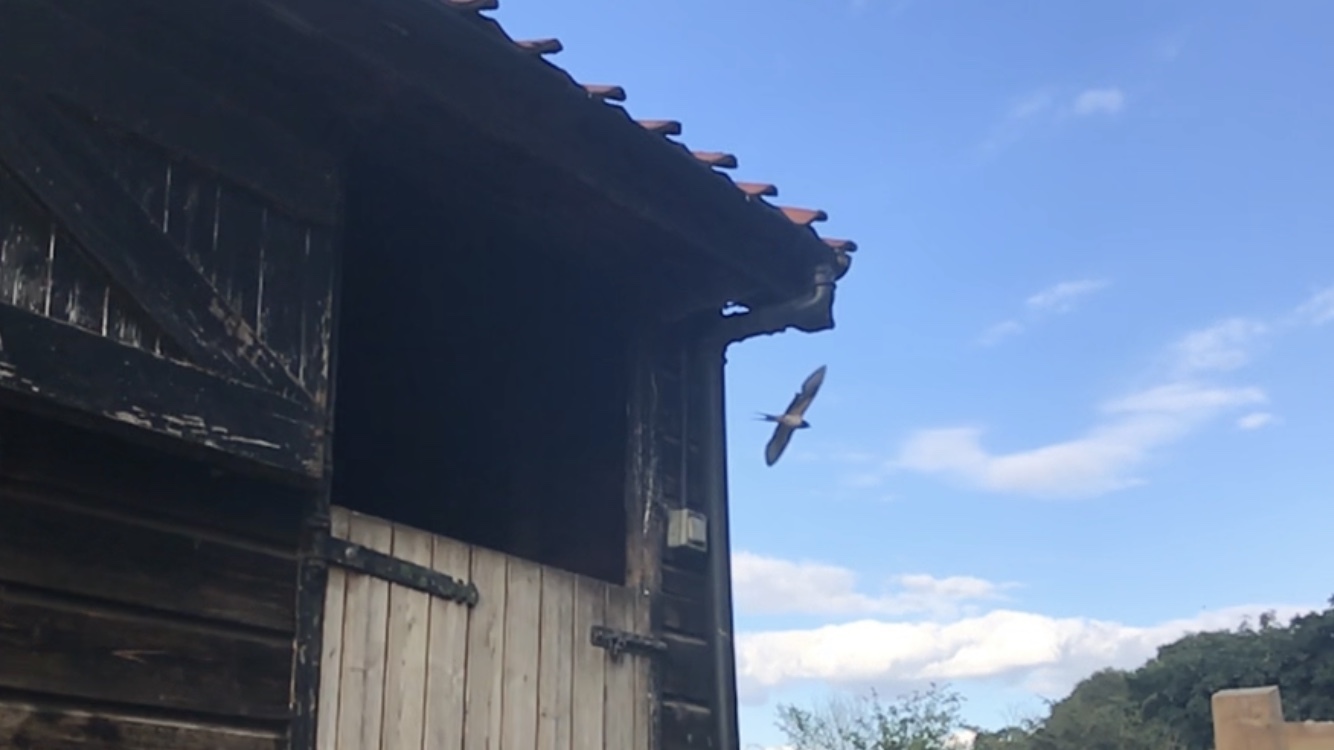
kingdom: Animalia
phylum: Chordata
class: Aves
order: Passeriformes
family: Hirundinidae
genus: Hirundo
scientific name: Hirundo rustica
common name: Barn swallow
